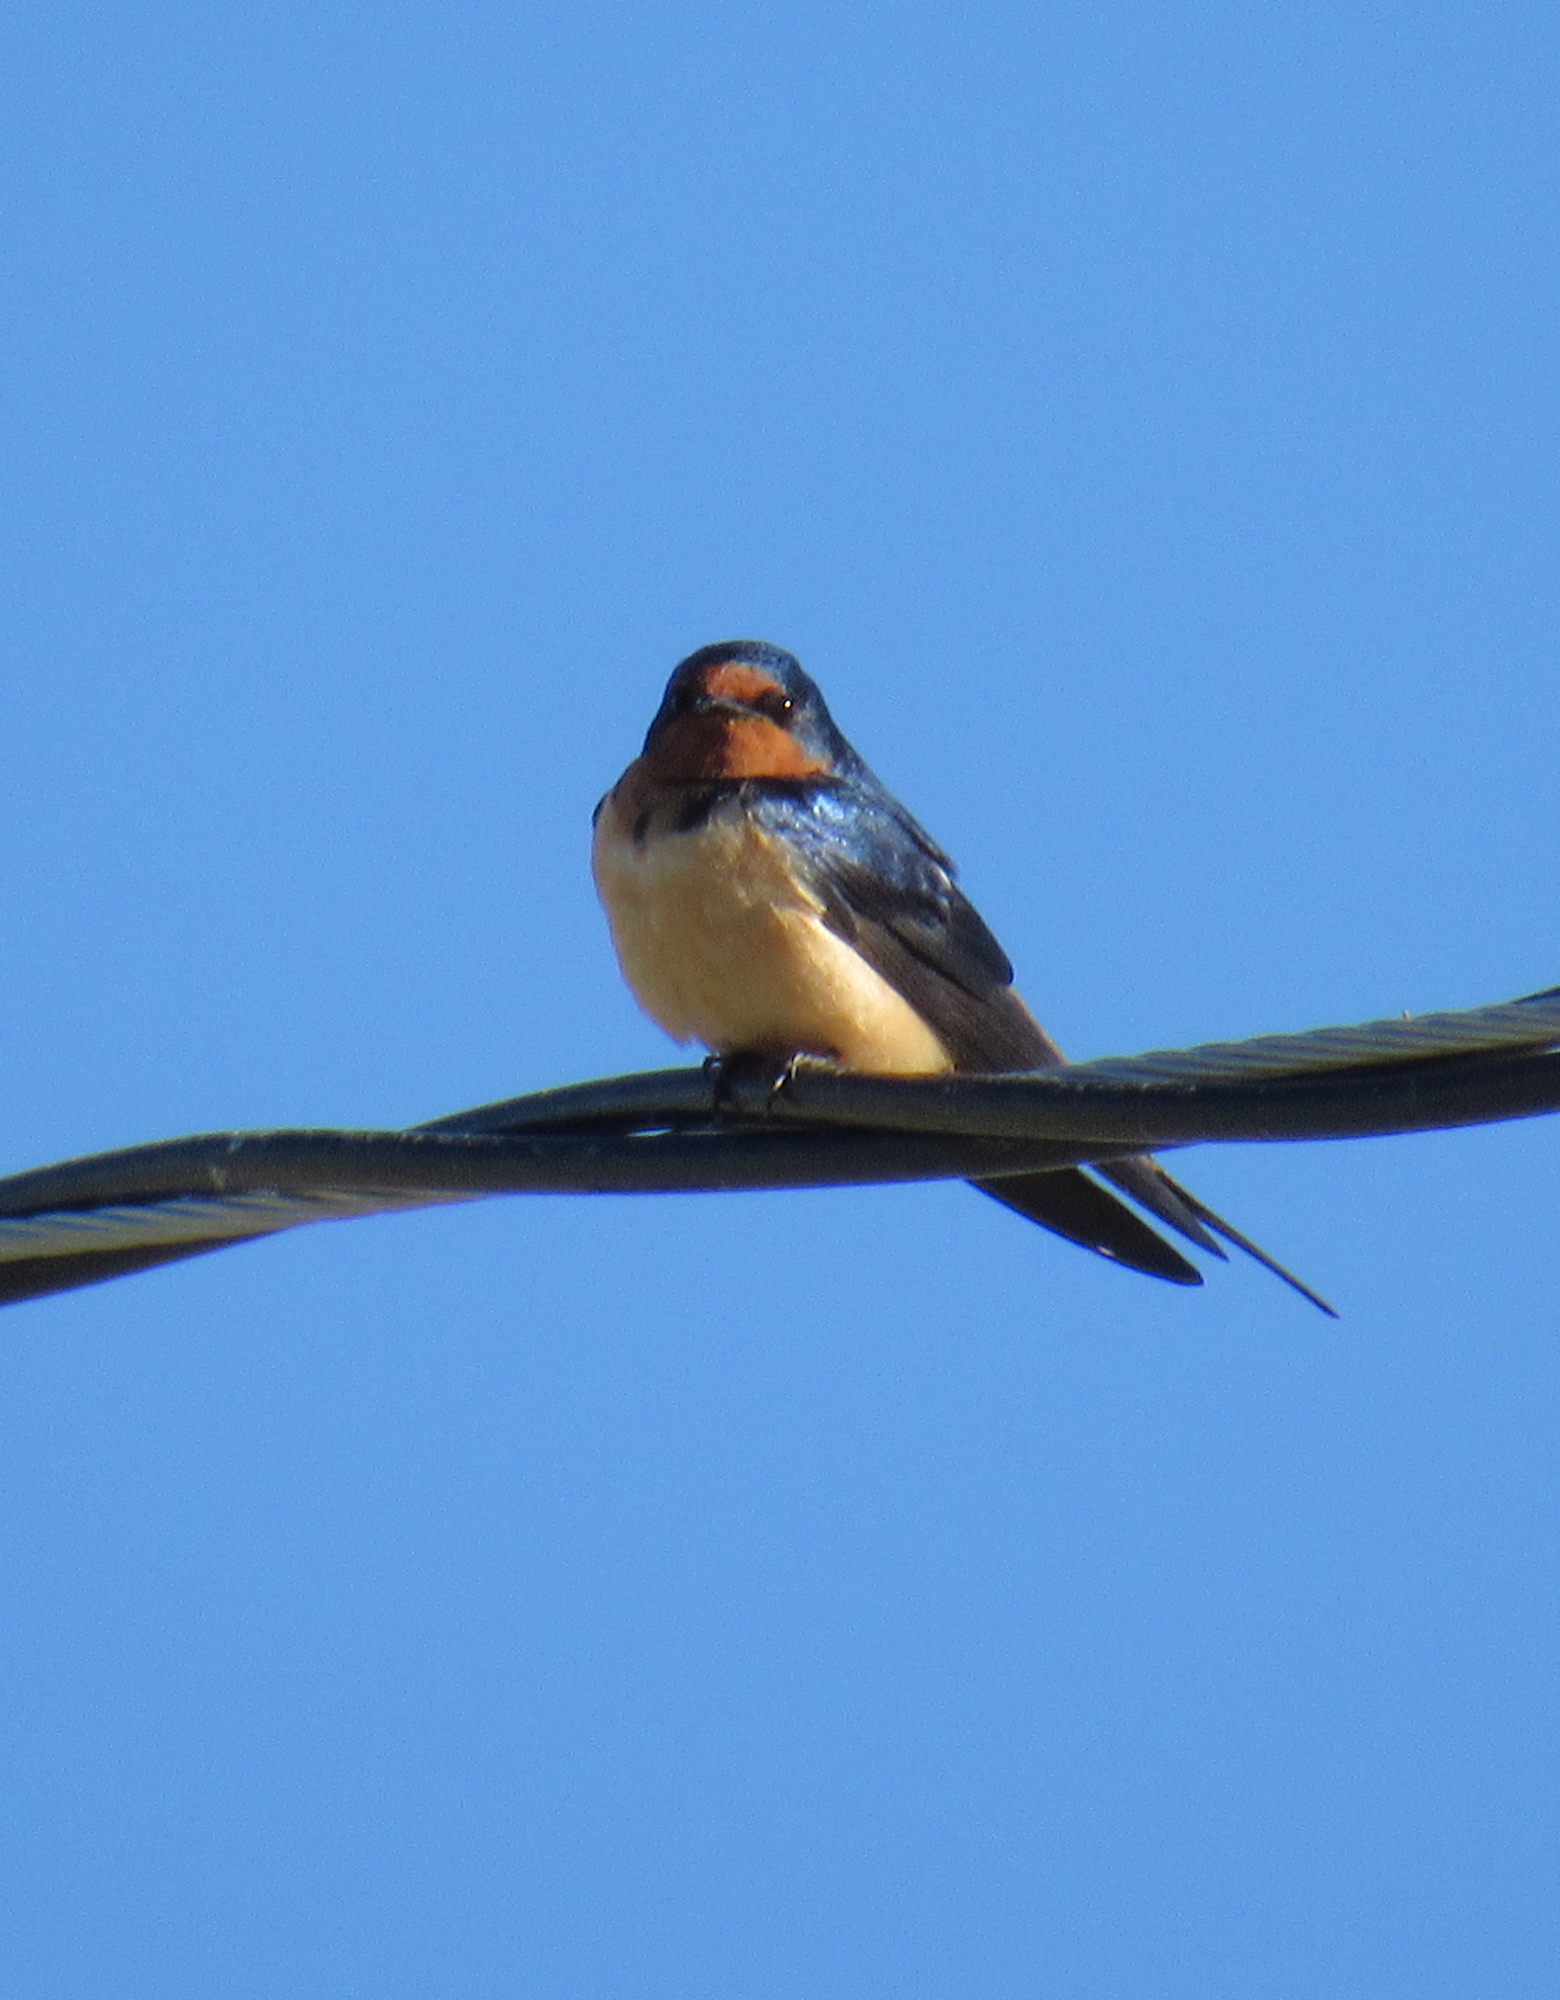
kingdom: Animalia
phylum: Chordata
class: Aves
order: Passeriformes
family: Hirundinidae
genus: Hirundo
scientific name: Hirundo rustica
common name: Barn swallow
